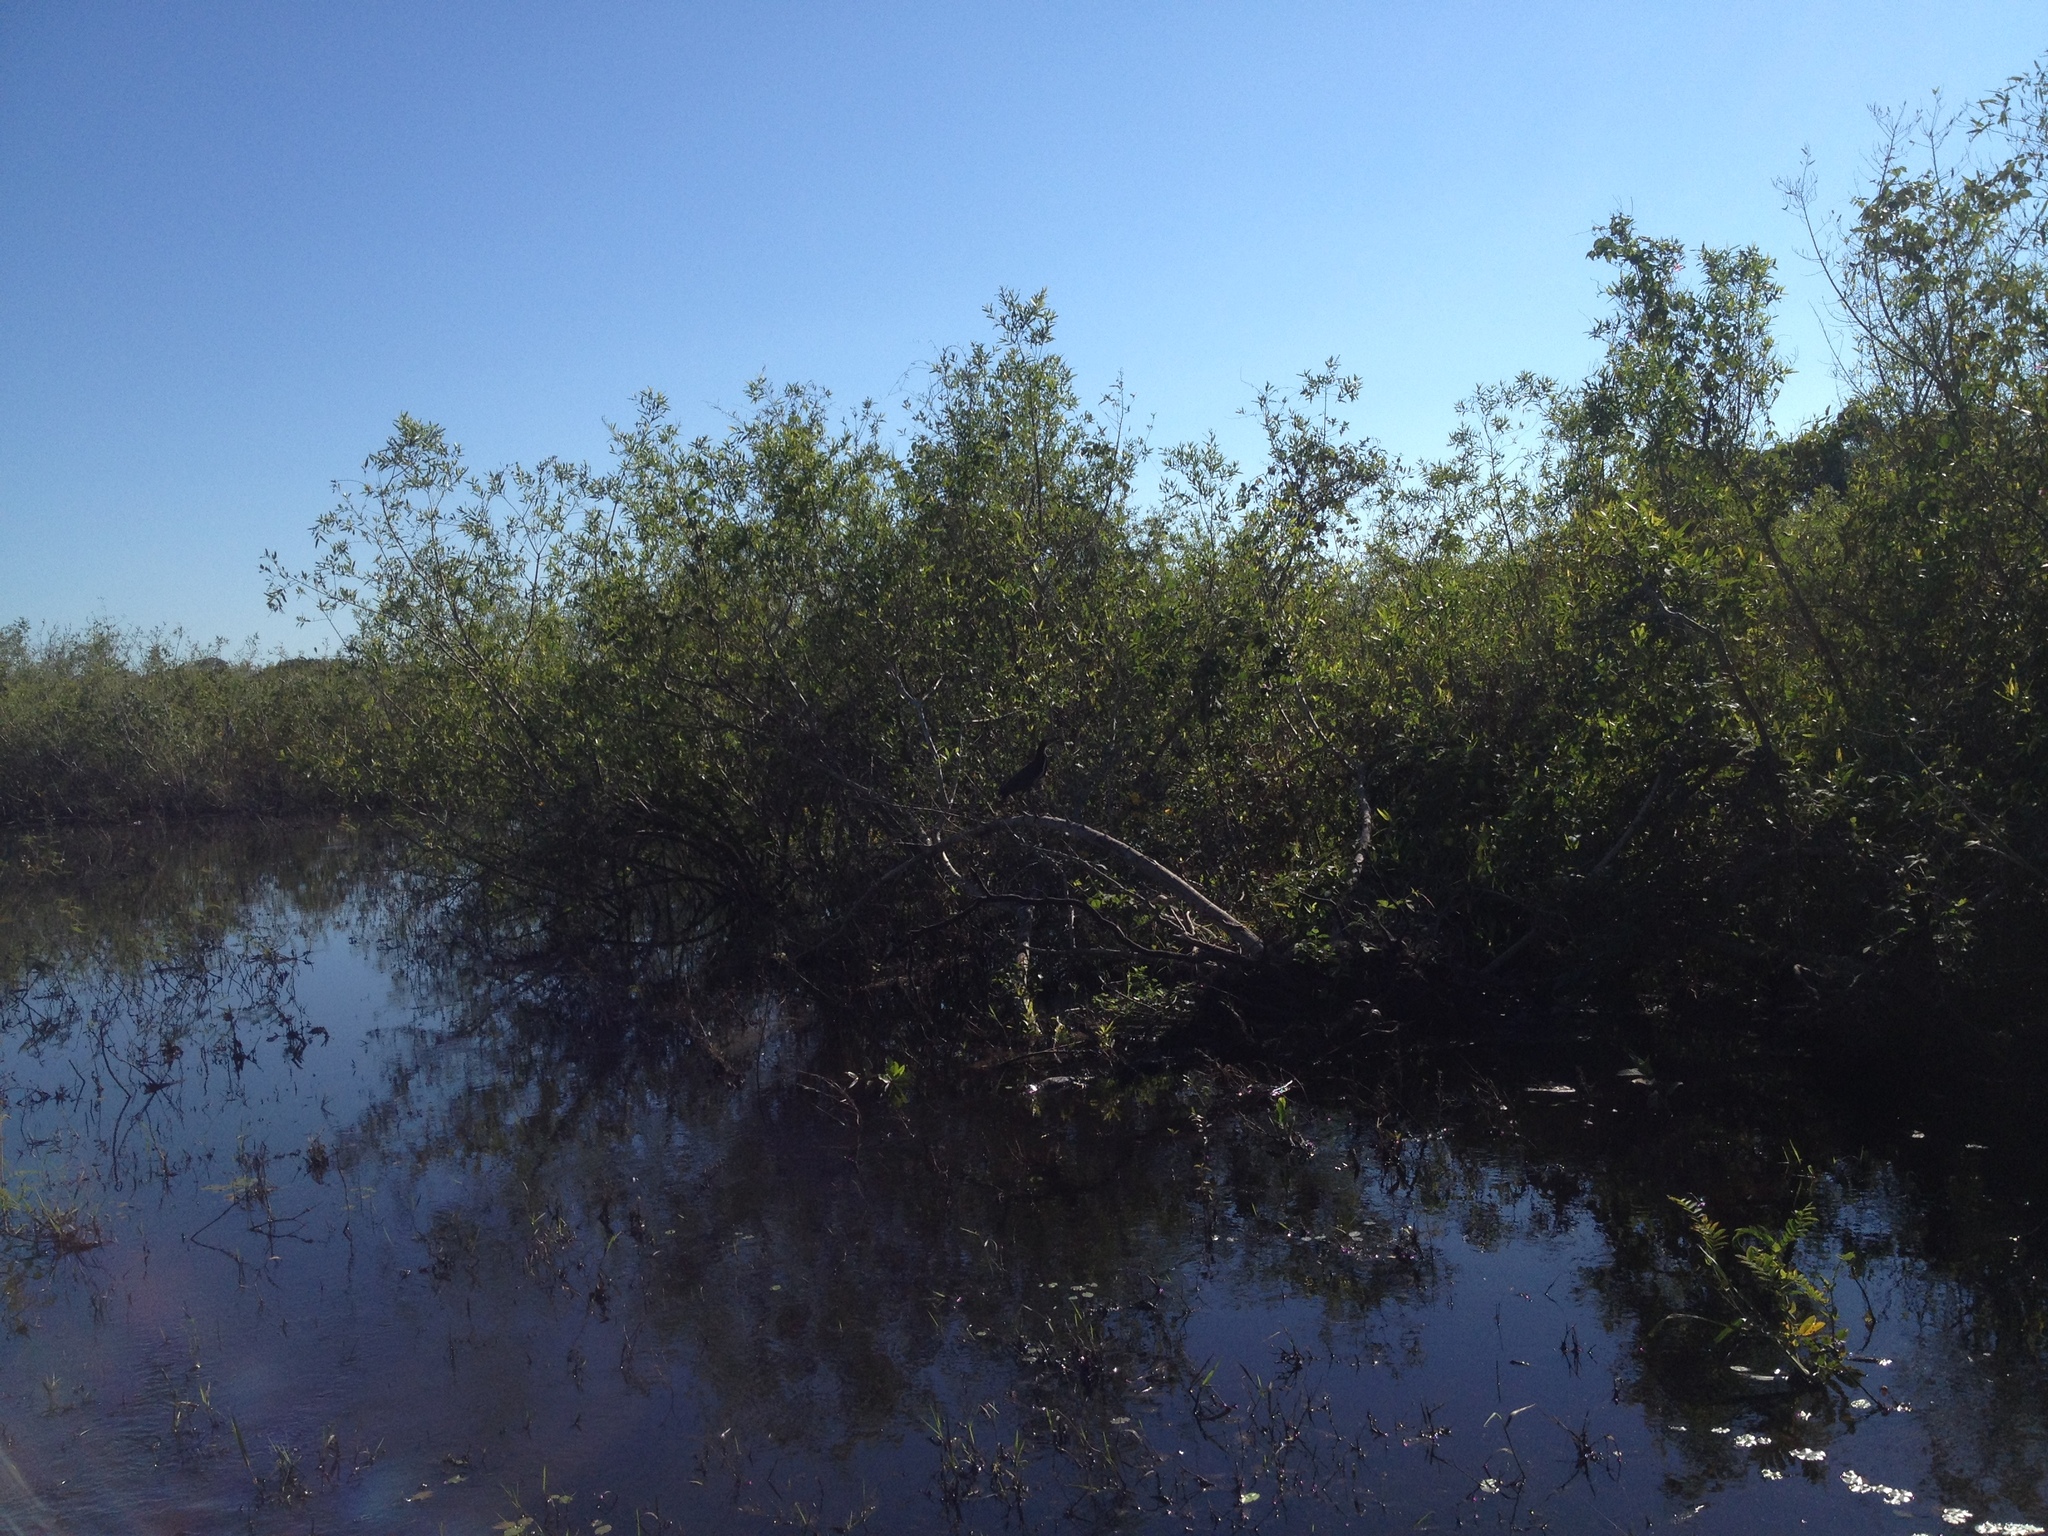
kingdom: Animalia
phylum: Chordata
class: Aves
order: Pelecaniformes
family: Ardeidae
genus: Tigrisoma
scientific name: Tigrisoma lineatum
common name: Rufescent tiger-heron
